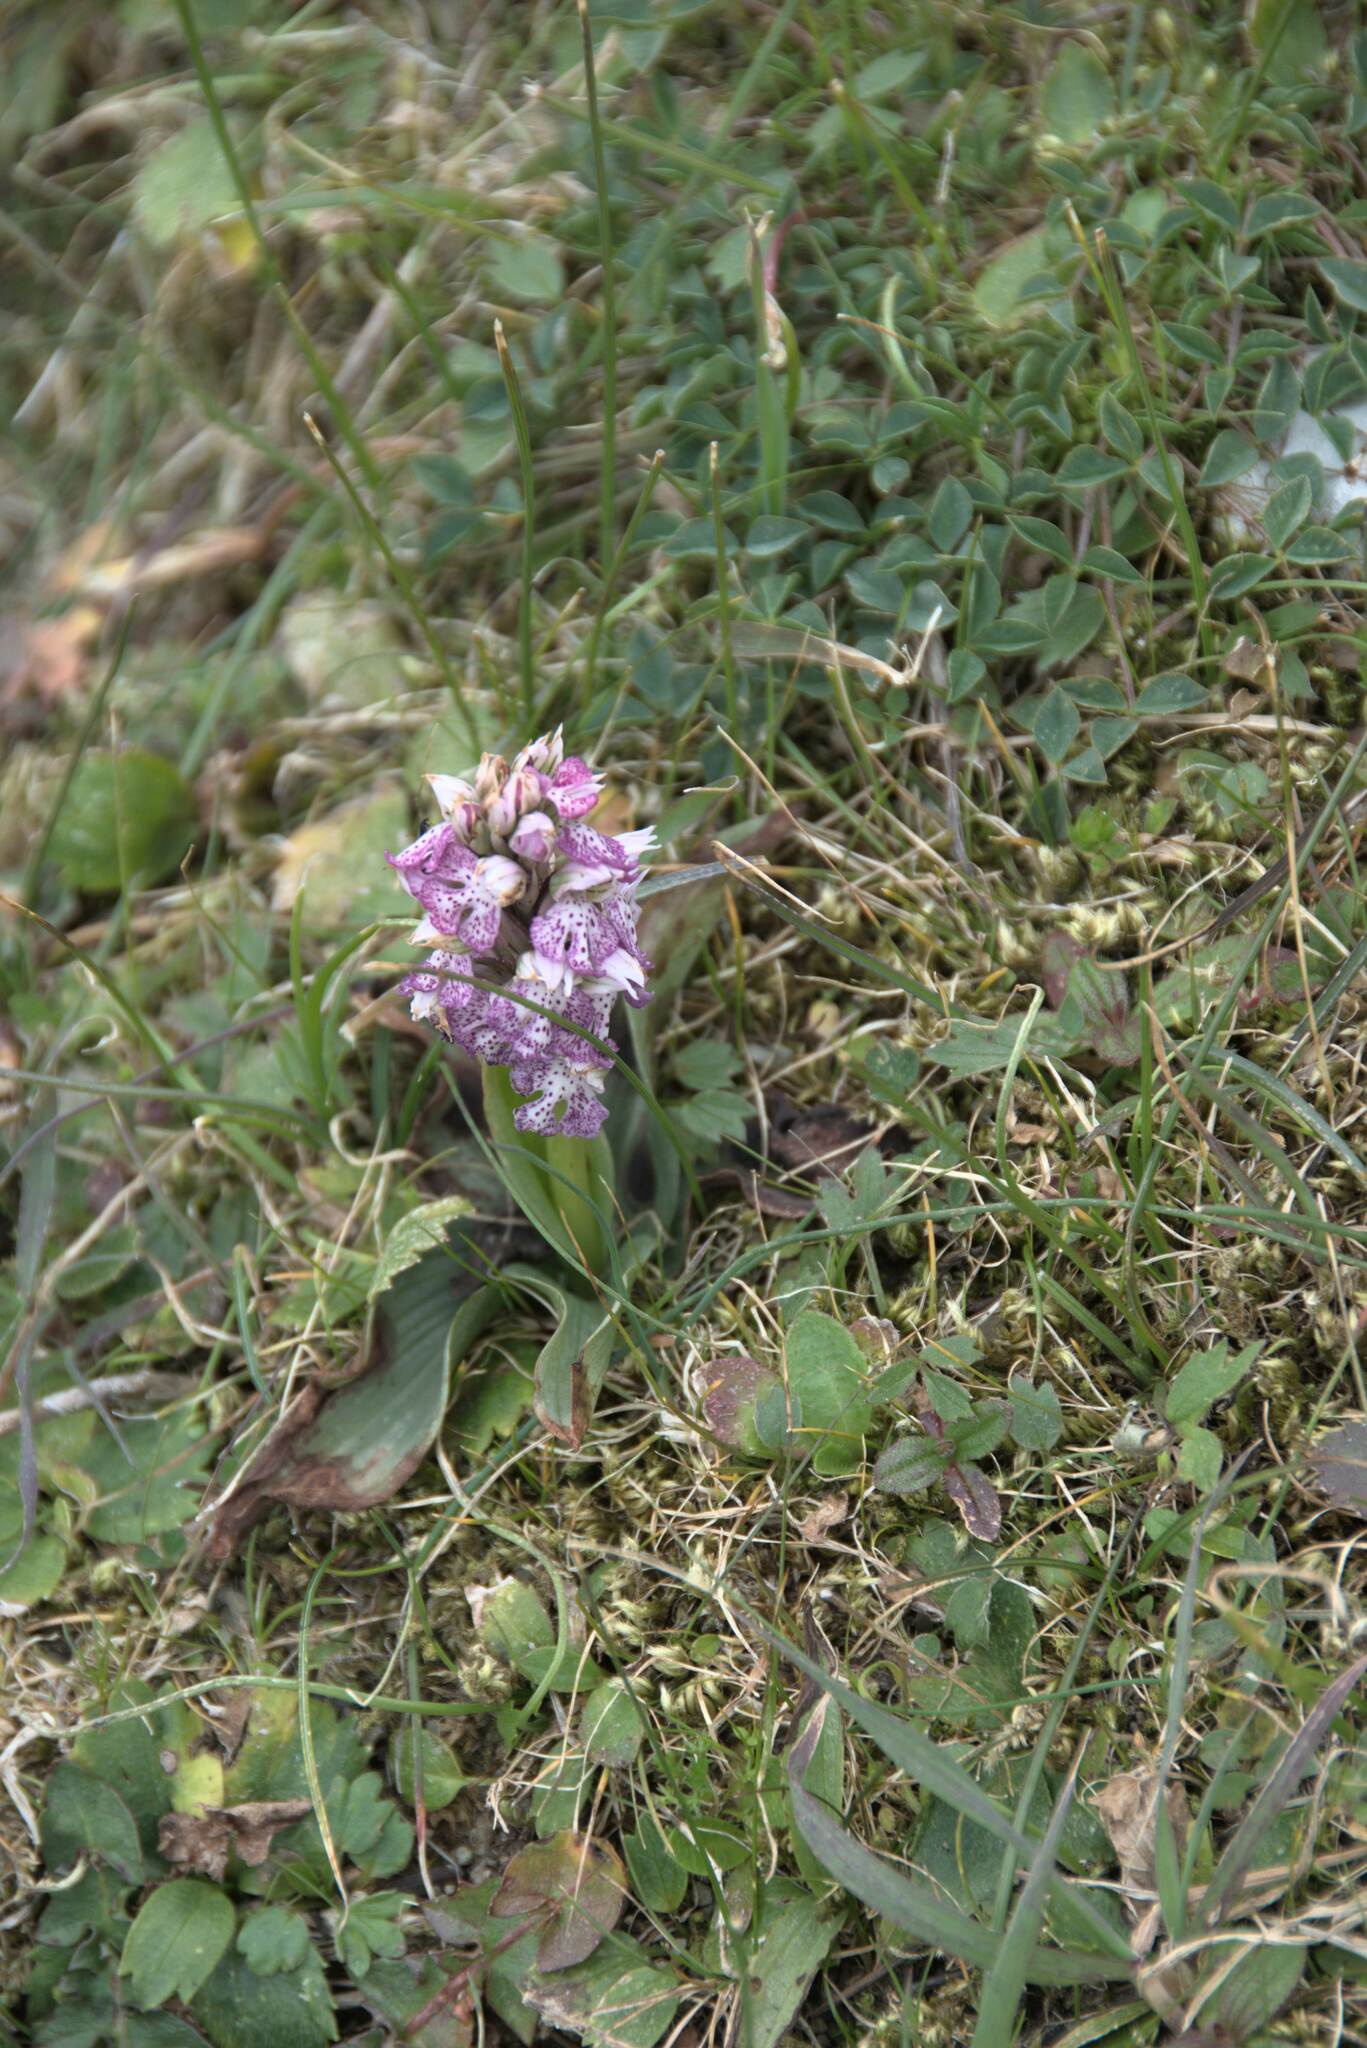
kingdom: Plantae
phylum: Tracheophyta
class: Liliopsida
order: Asparagales
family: Orchidaceae
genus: Neotinea
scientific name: Neotinea lactea
